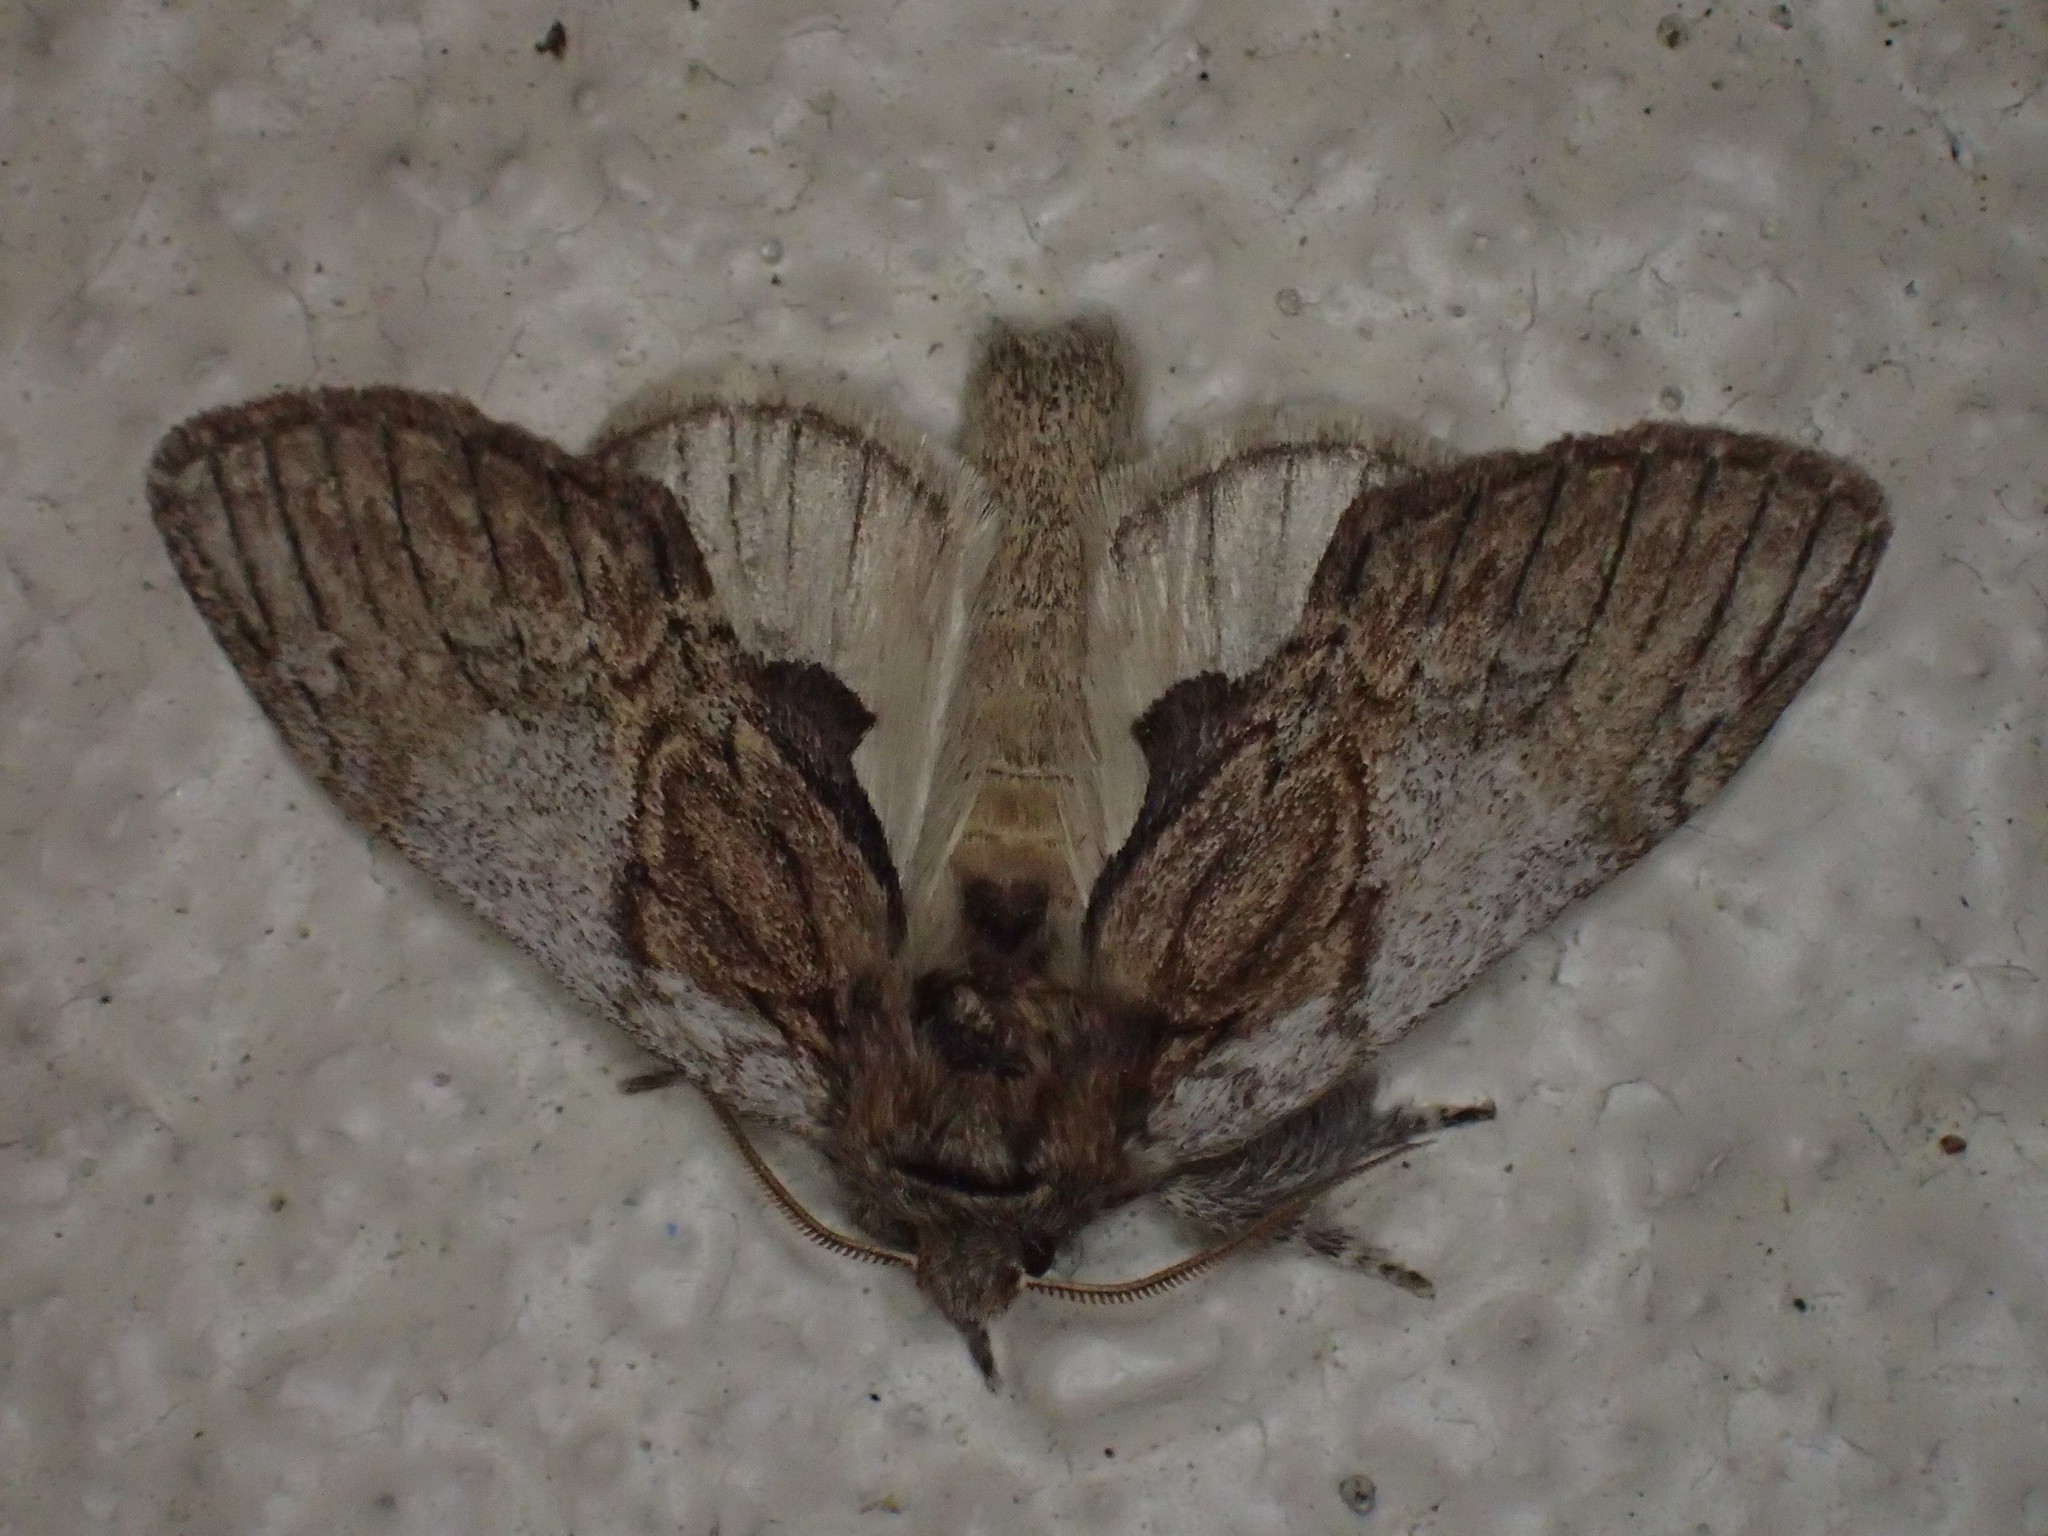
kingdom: Animalia
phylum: Arthropoda
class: Insecta
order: Lepidoptera
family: Notodontidae
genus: Peridea
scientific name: Peridea basitriens
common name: Oval-based prominent
